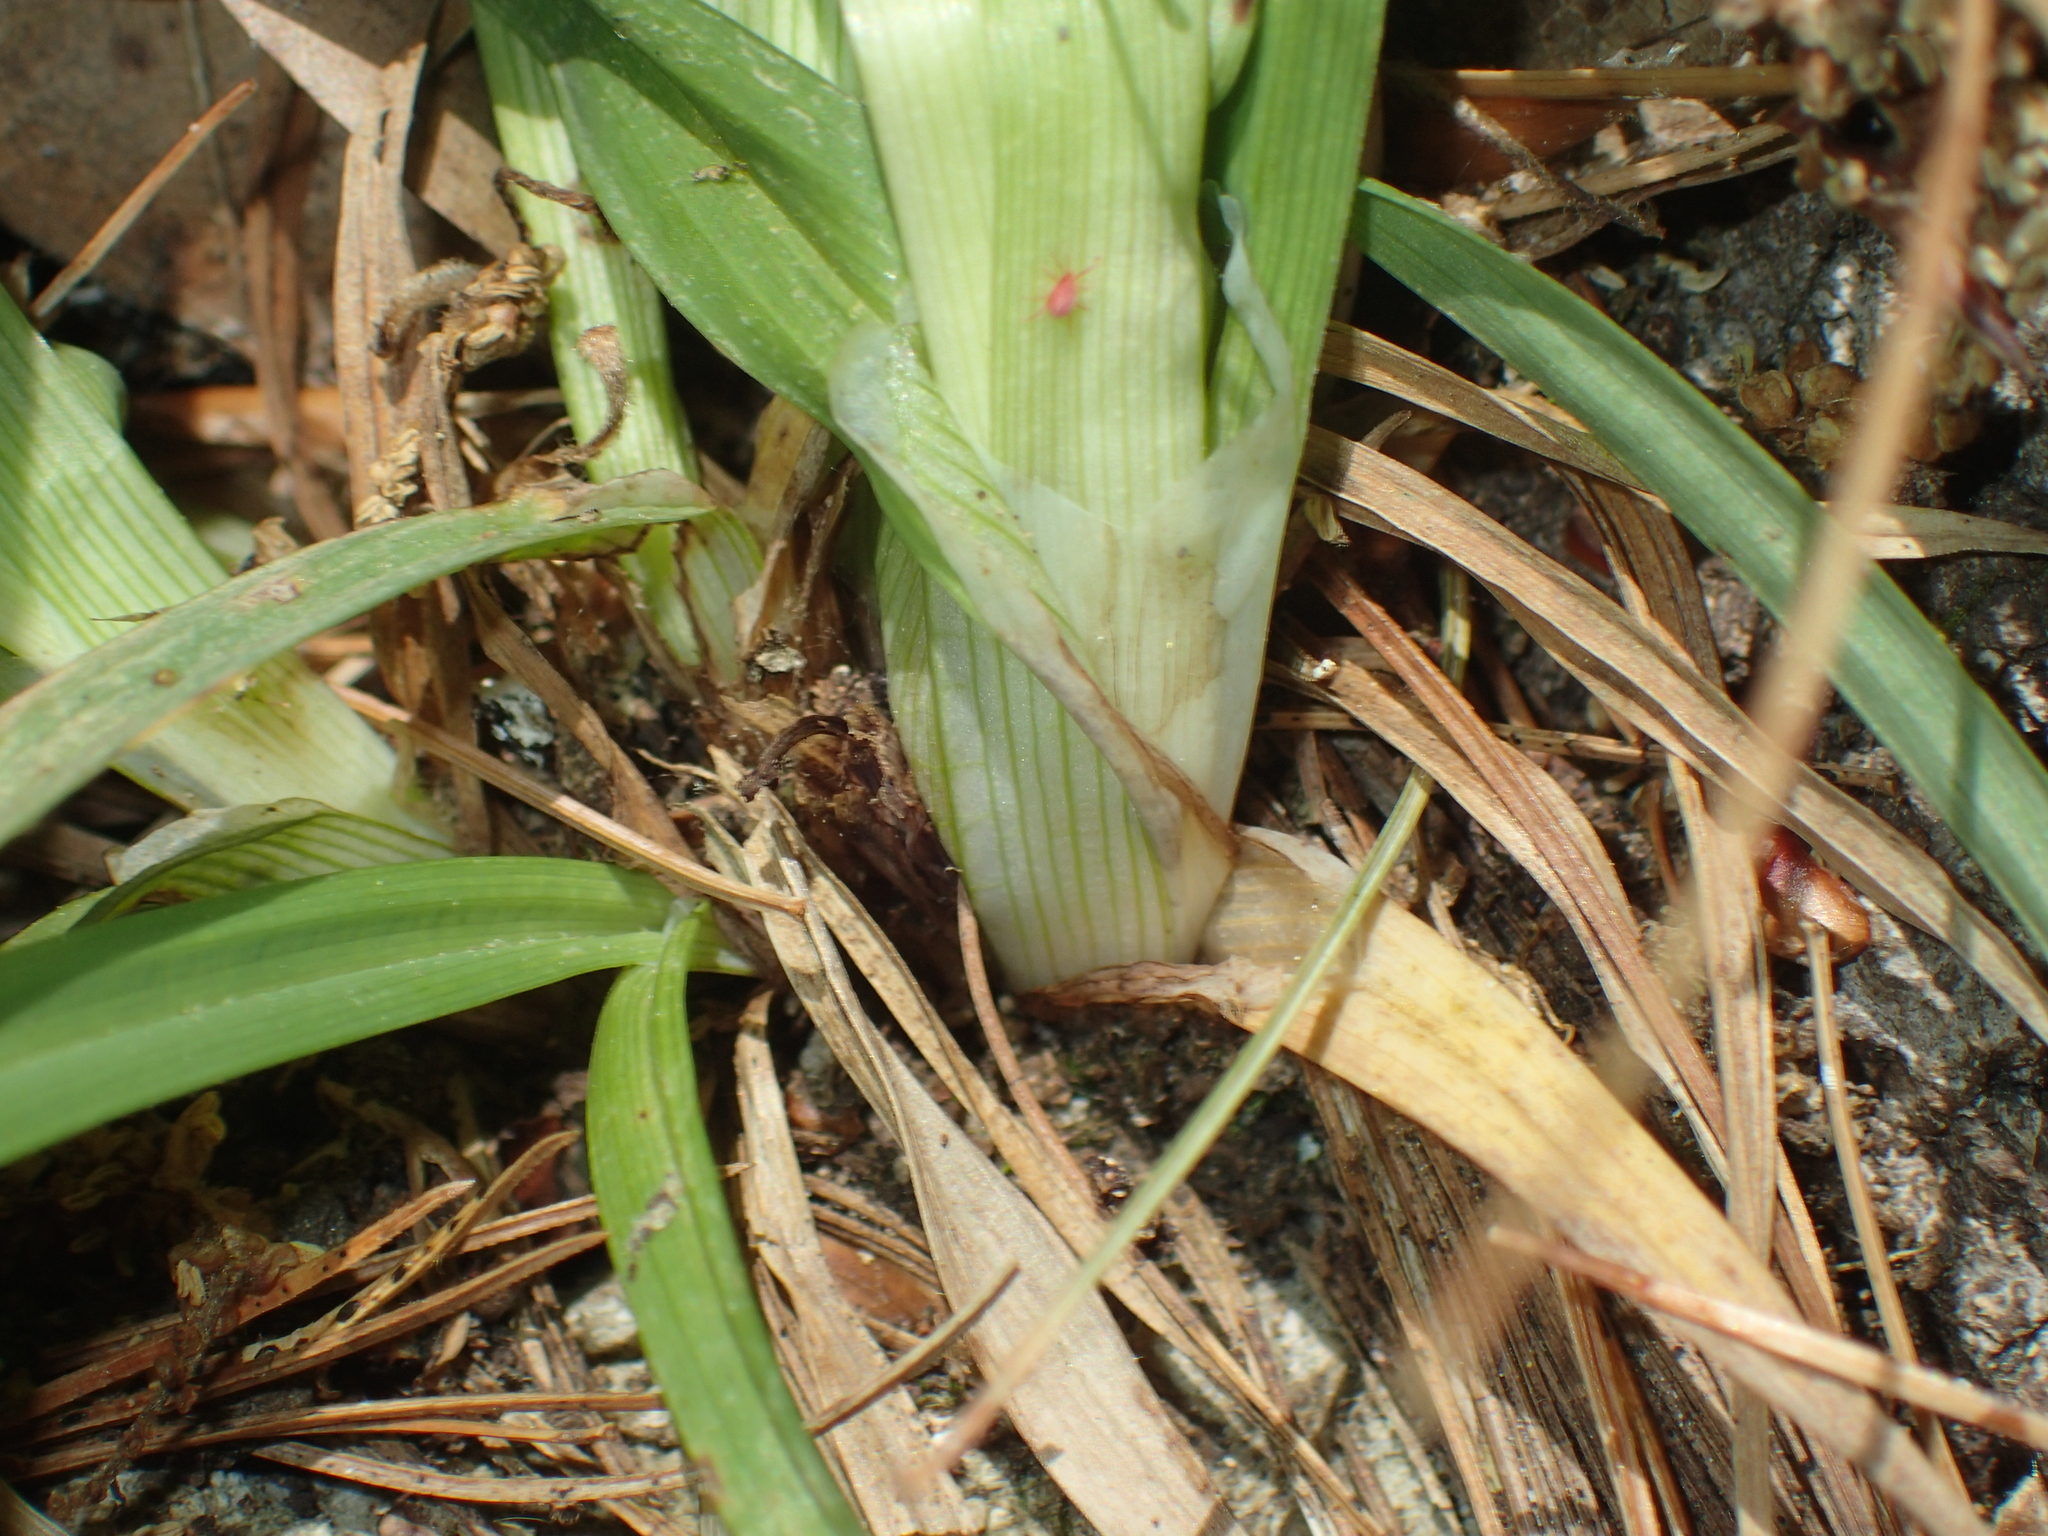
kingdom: Plantae
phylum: Tracheophyta
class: Liliopsida
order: Poales
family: Cyperaceae
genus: Carex
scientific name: Carex laxiflora
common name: Beech wood sedge
